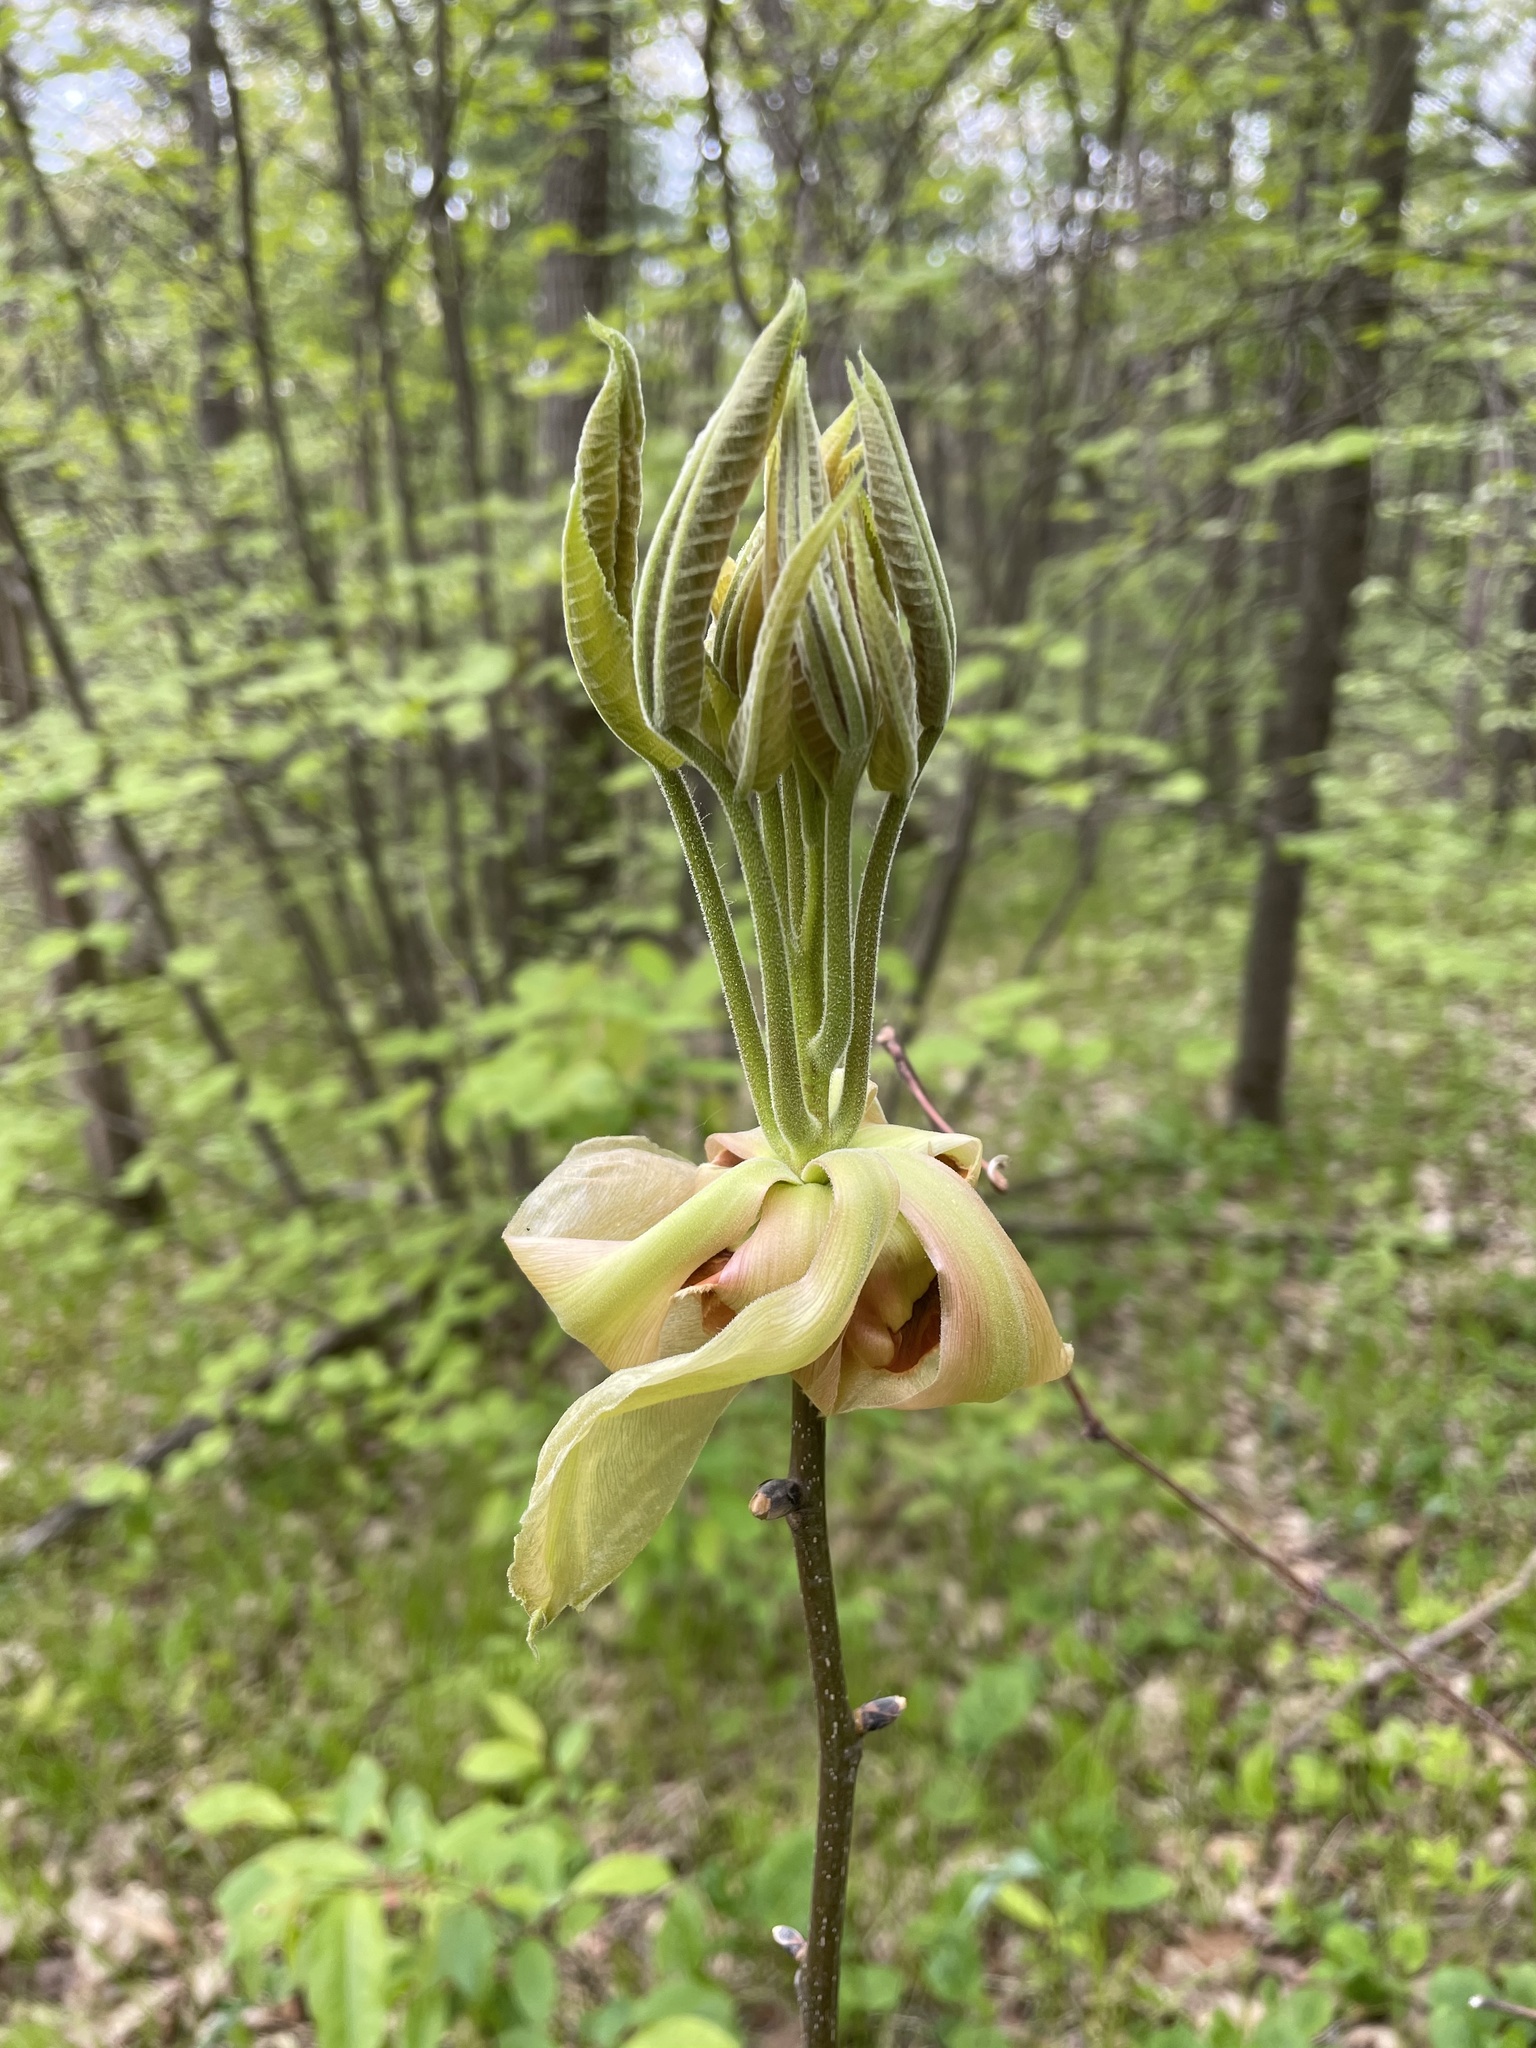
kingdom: Plantae
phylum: Tracheophyta
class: Magnoliopsida
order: Fagales
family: Juglandaceae
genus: Carya
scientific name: Carya ovata
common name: Shagbark hickory
